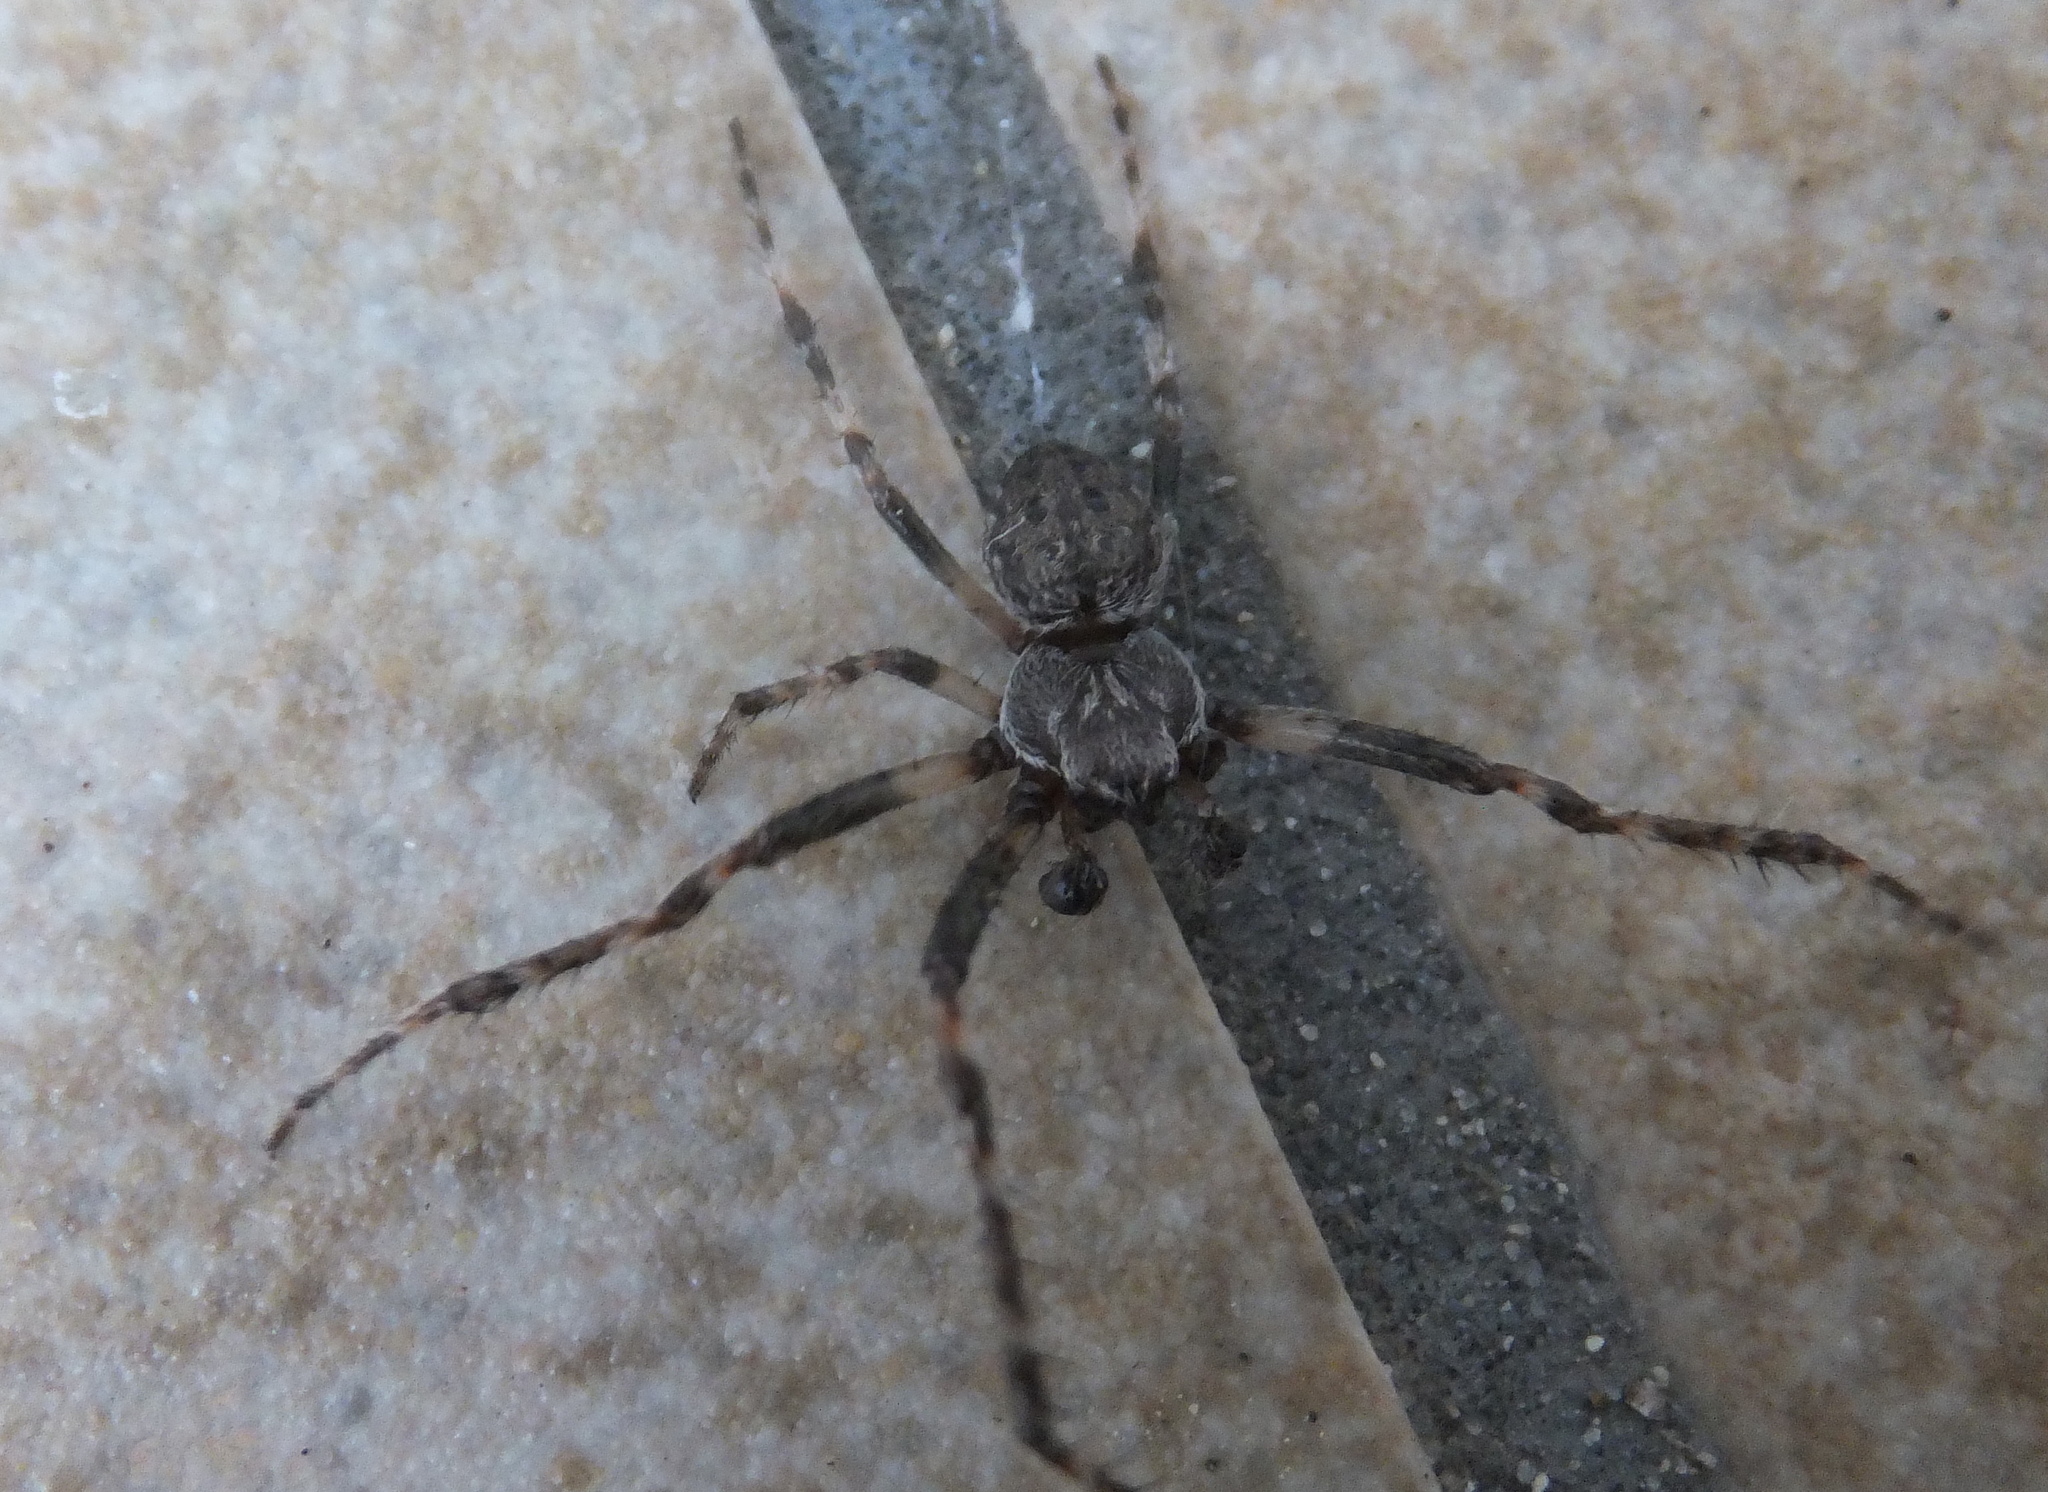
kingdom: Animalia
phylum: Arthropoda
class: Arachnida
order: Araneae
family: Araneidae
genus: Nuctenea
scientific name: Nuctenea umbratica
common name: Toad spider
